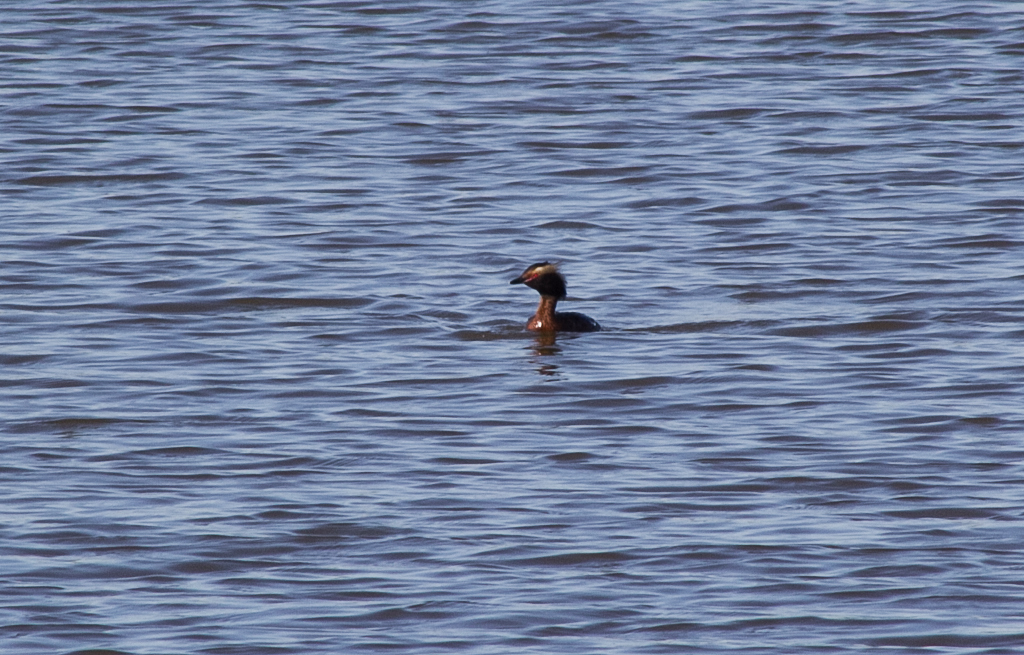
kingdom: Animalia
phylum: Chordata
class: Aves
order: Podicipediformes
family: Podicipedidae
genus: Podiceps
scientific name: Podiceps auritus
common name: Horned grebe
